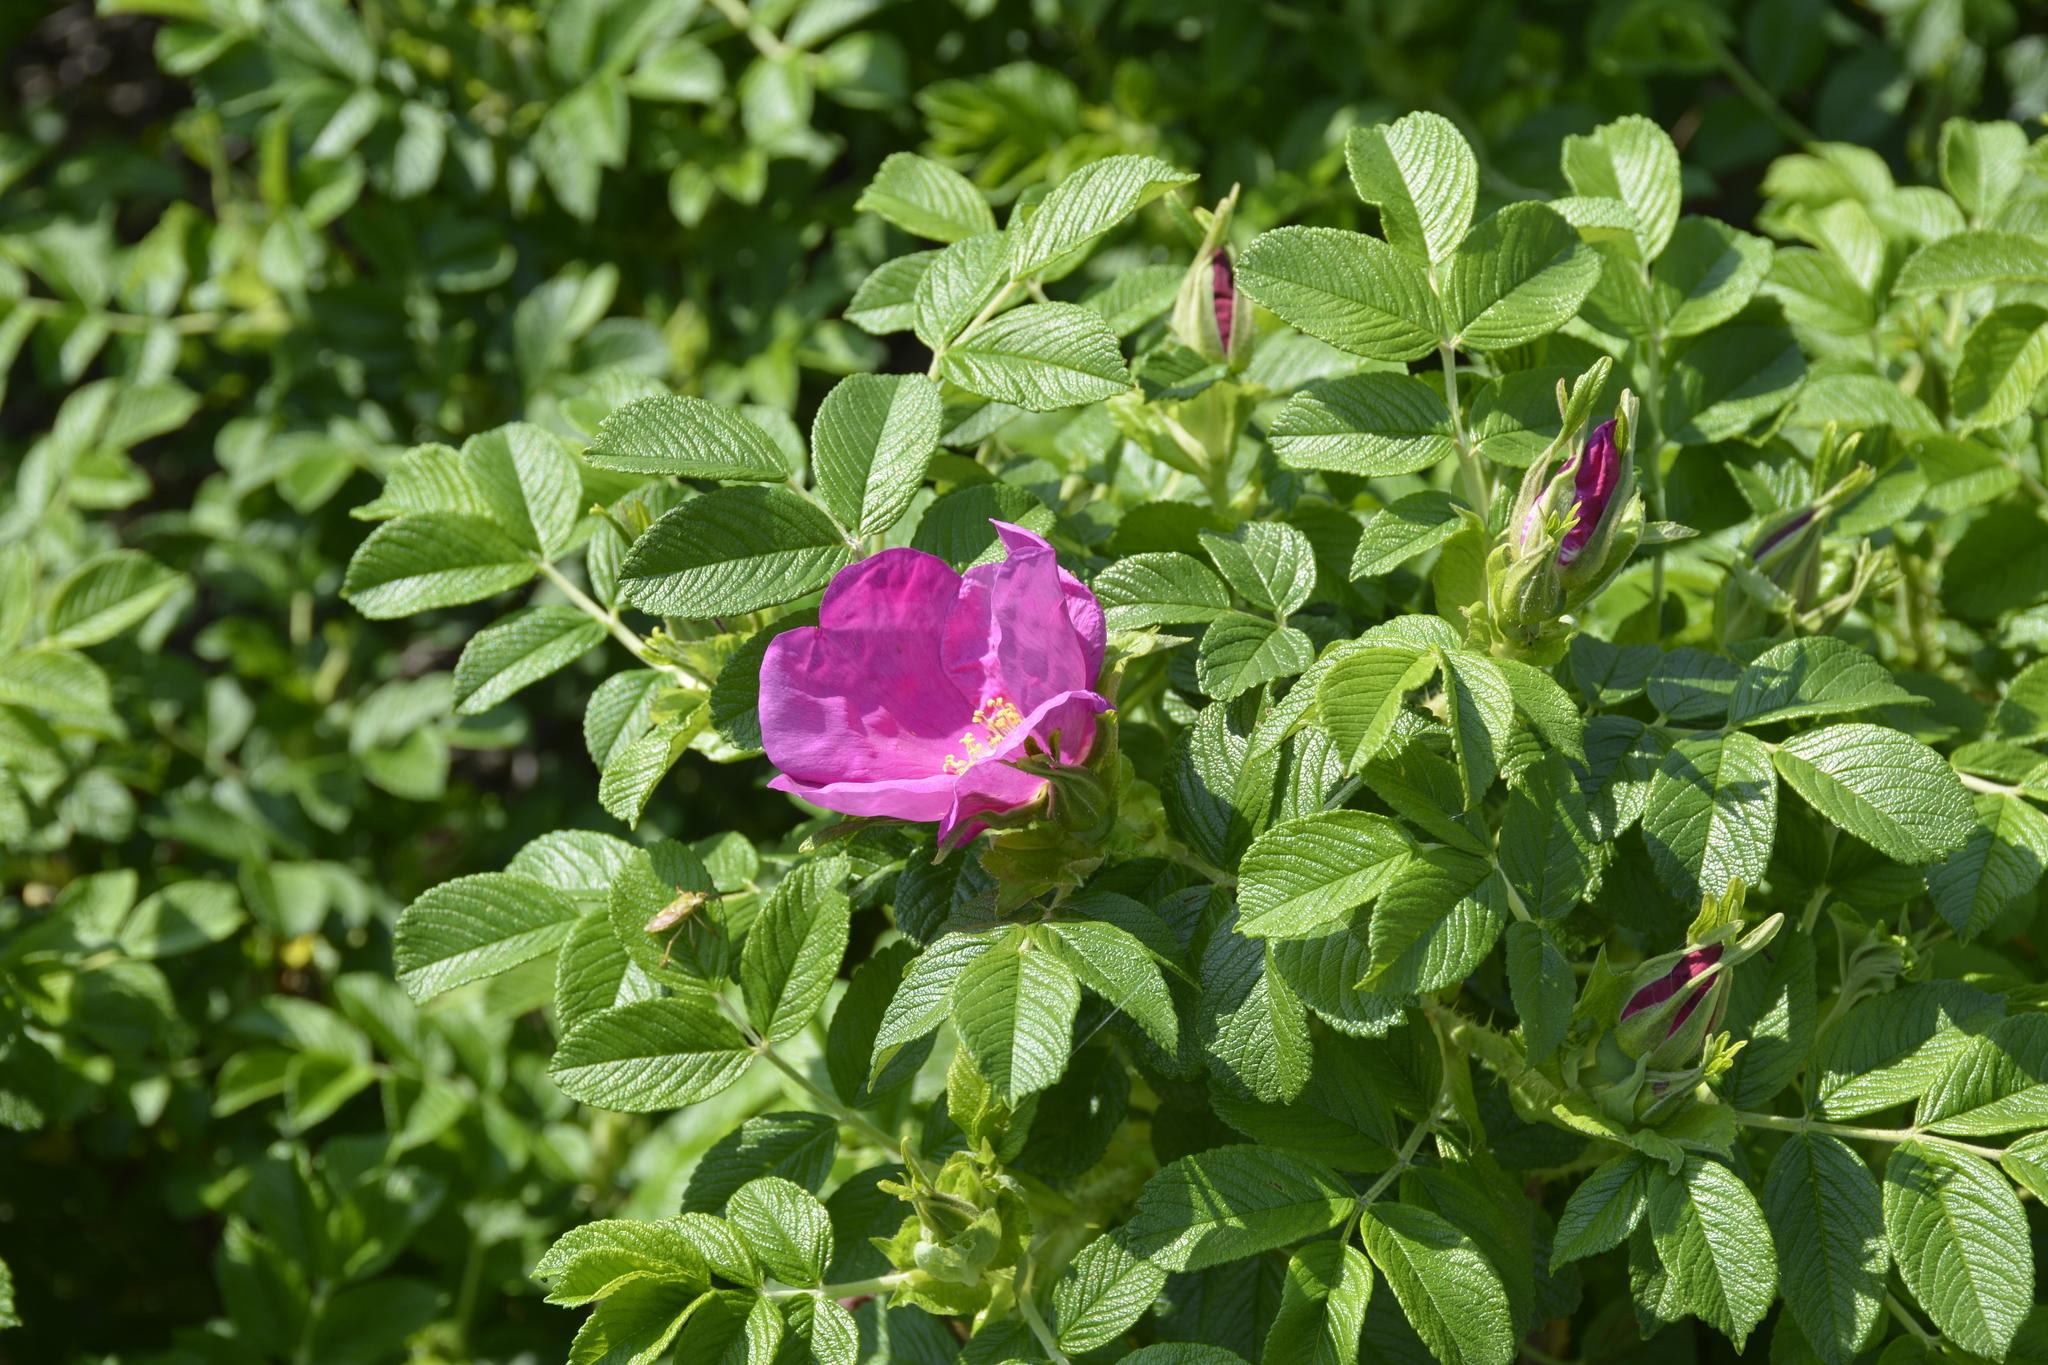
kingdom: Plantae
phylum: Tracheophyta
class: Magnoliopsida
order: Rosales
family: Rosaceae
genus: Rosa
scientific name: Rosa rugosa
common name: Japanese rose
